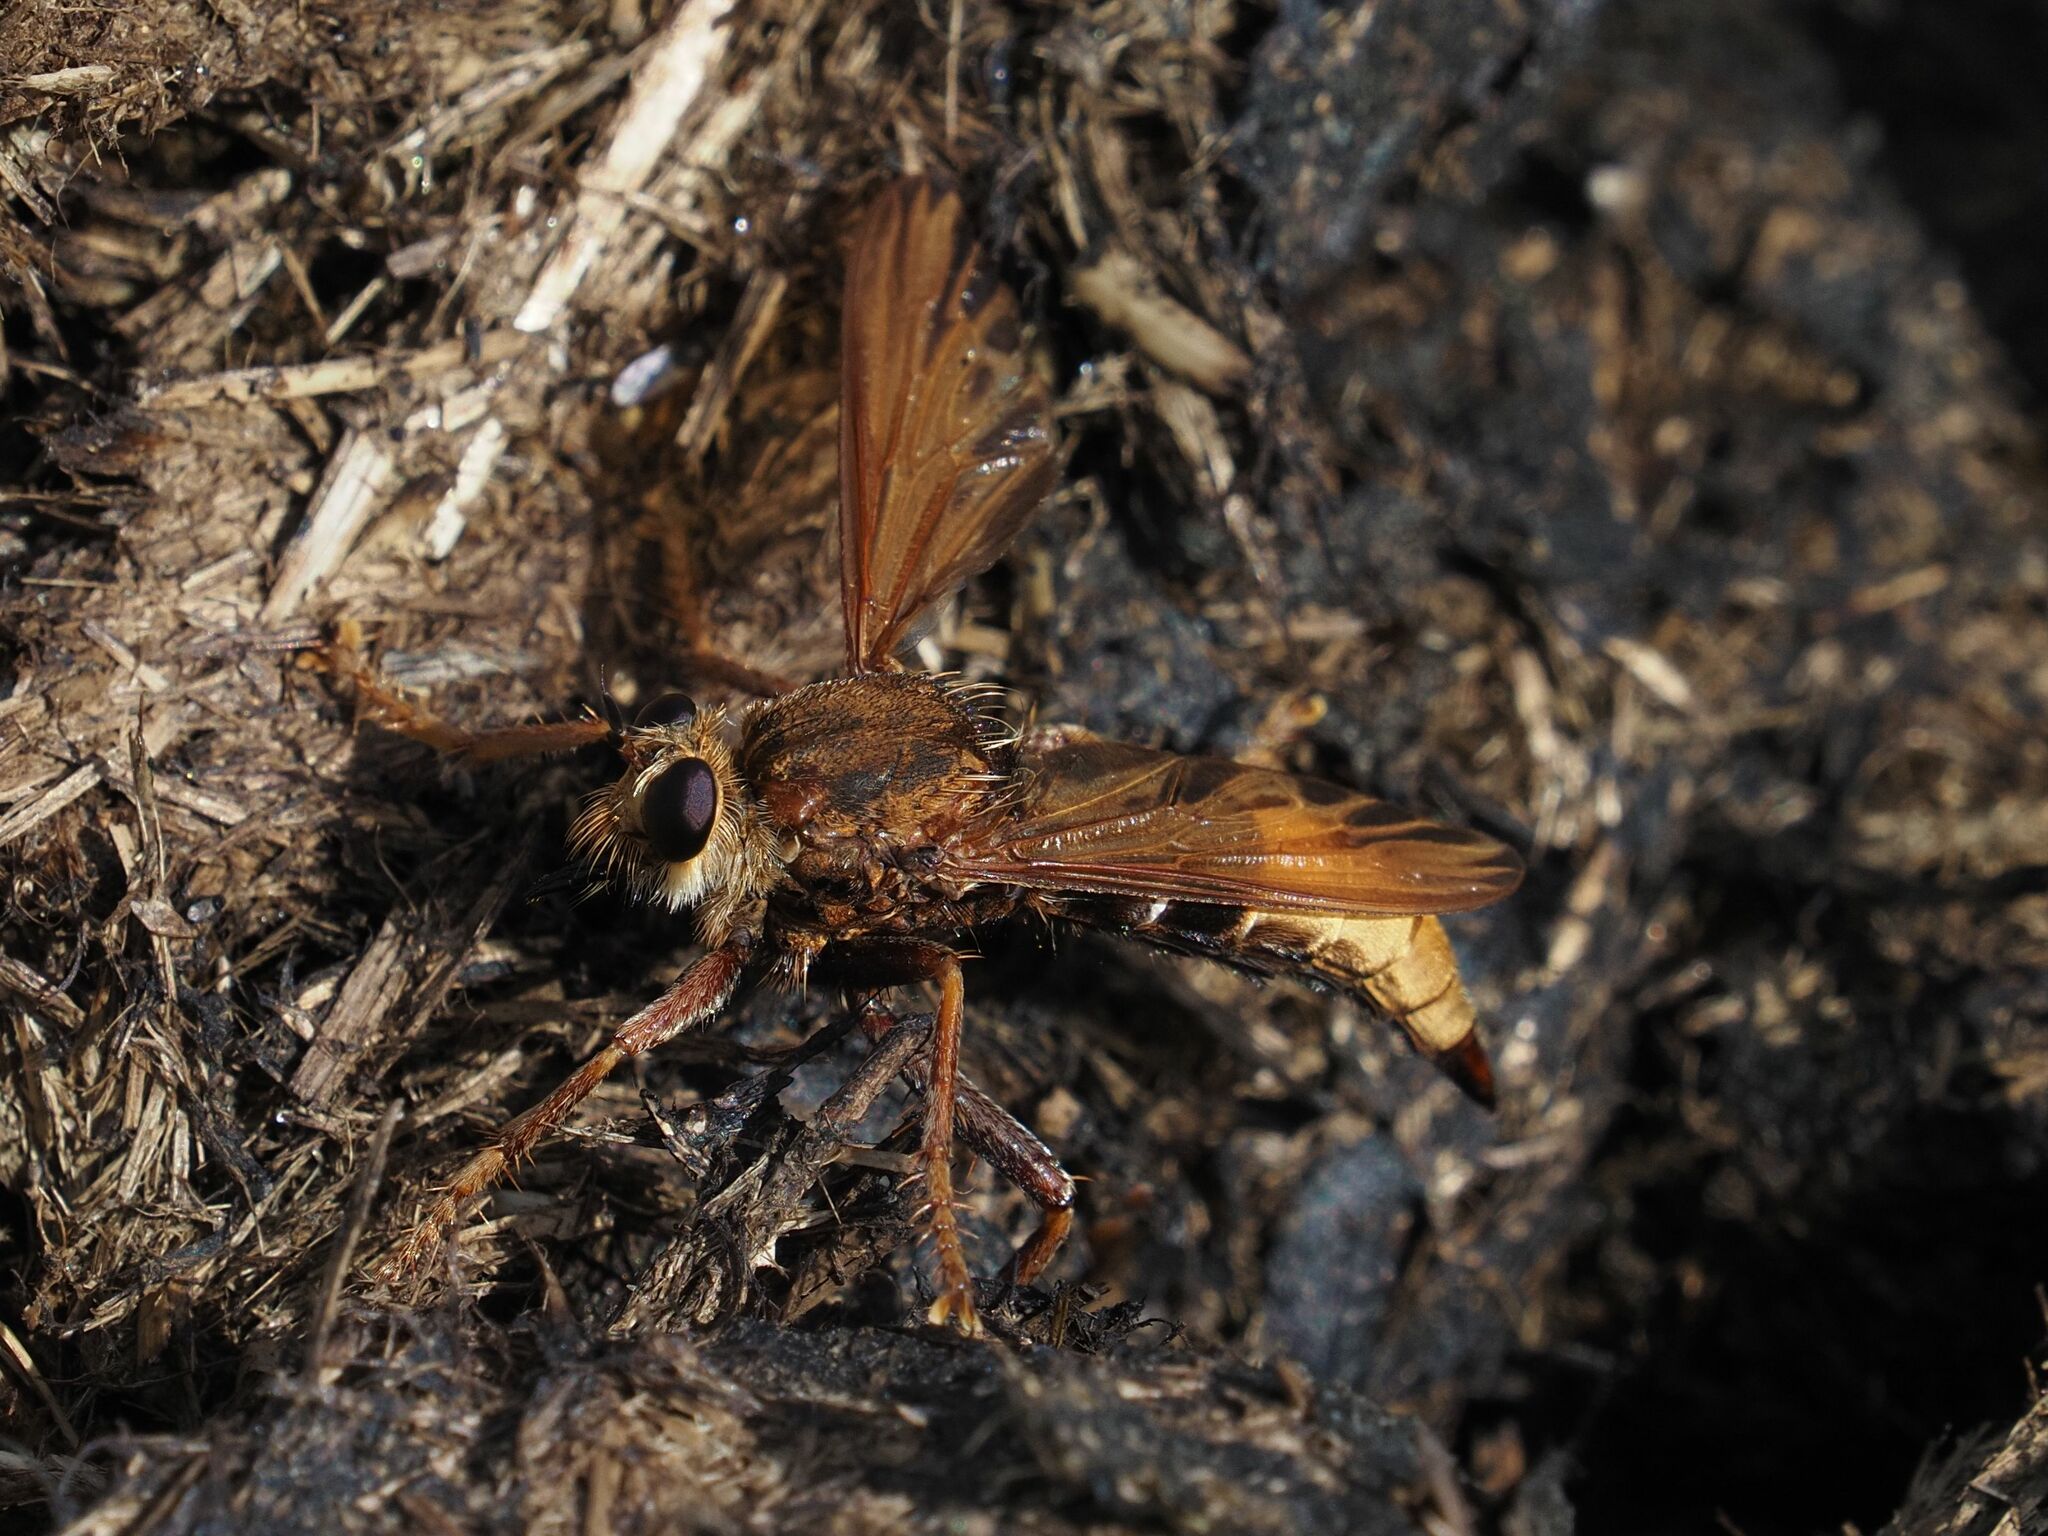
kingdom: Animalia
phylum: Arthropoda
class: Insecta
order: Diptera
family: Asilidae
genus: Asilus
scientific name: Asilus crabroniformis
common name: Hornet robberfly
